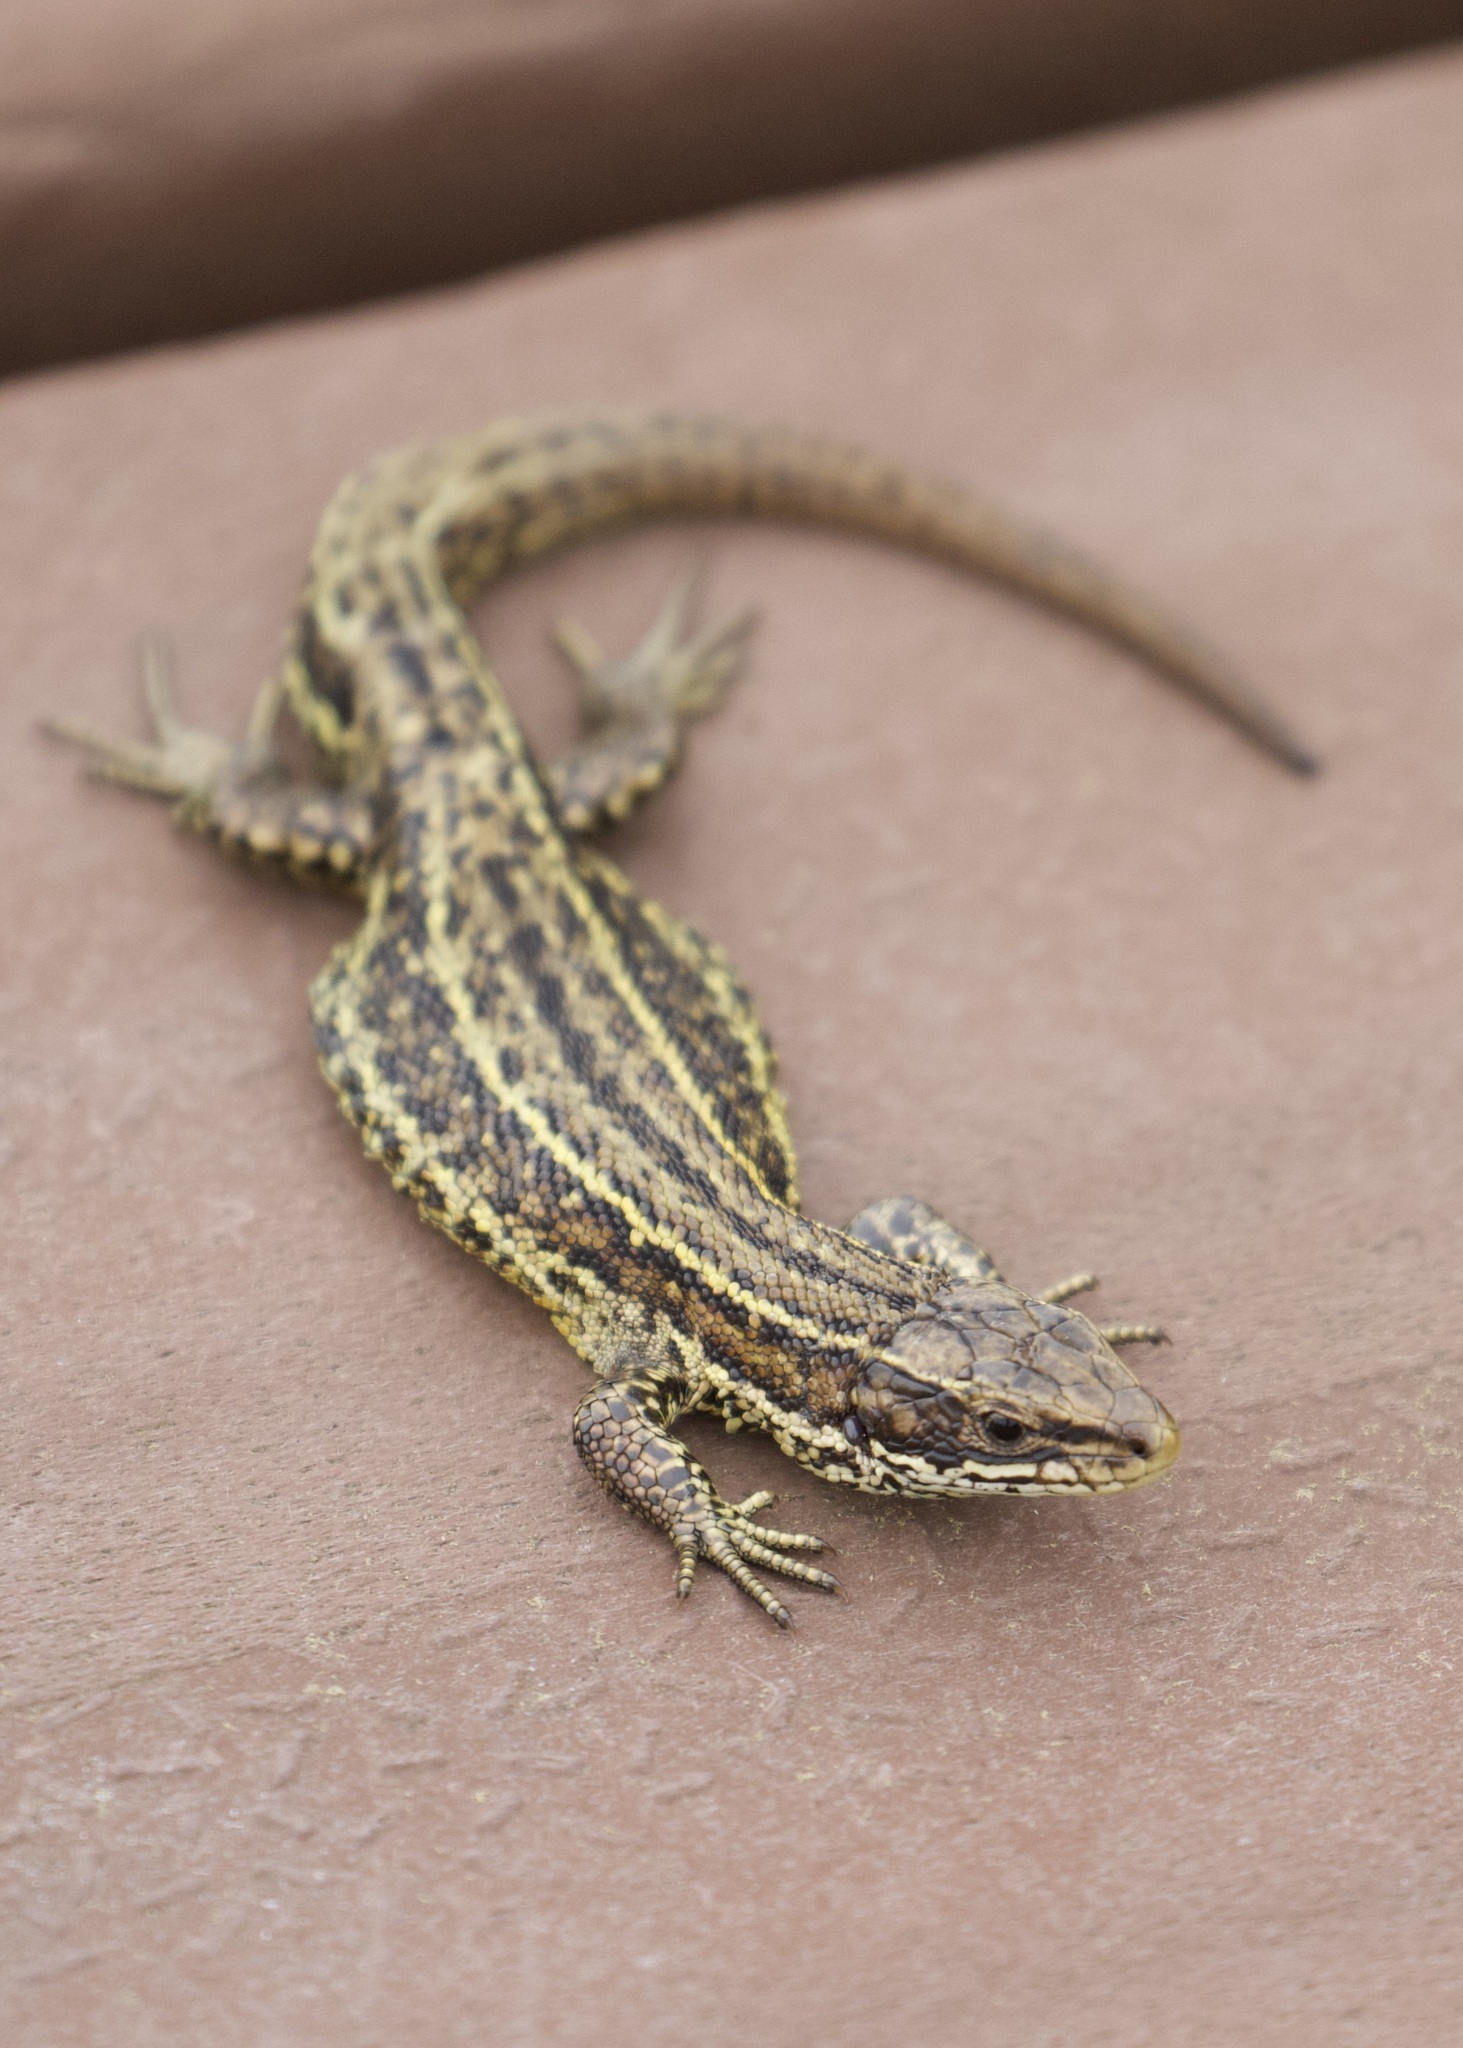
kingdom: Animalia
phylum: Chordata
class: Squamata
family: Lacertidae
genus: Zootoca
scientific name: Zootoca vivipara
